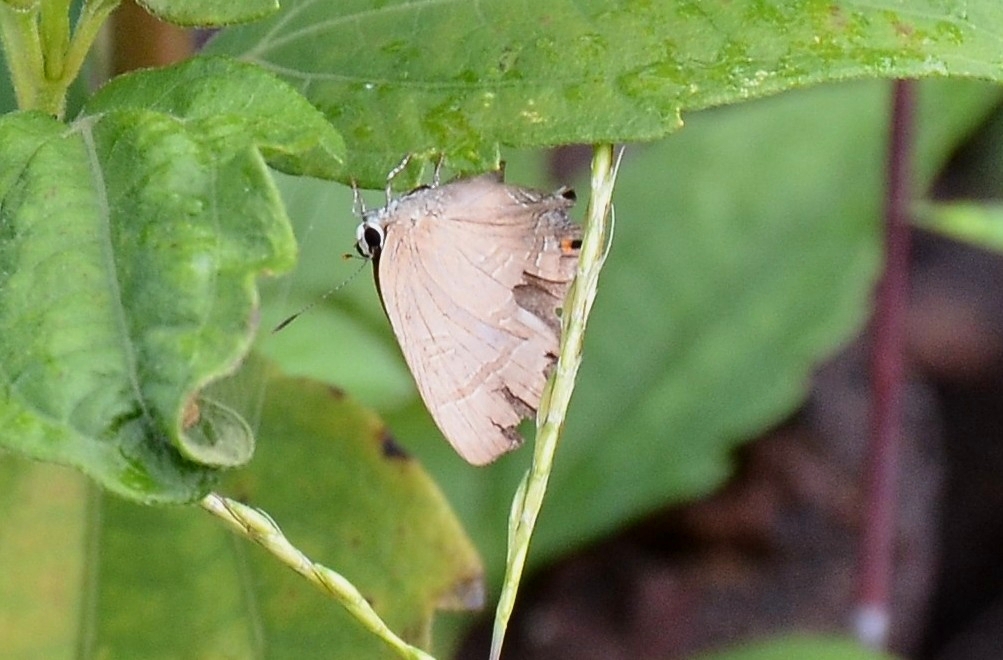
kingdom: Animalia
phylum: Arthropoda
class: Insecta
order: Lepidoptera
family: Lycaenidae
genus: Rapala
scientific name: Rapala manea
